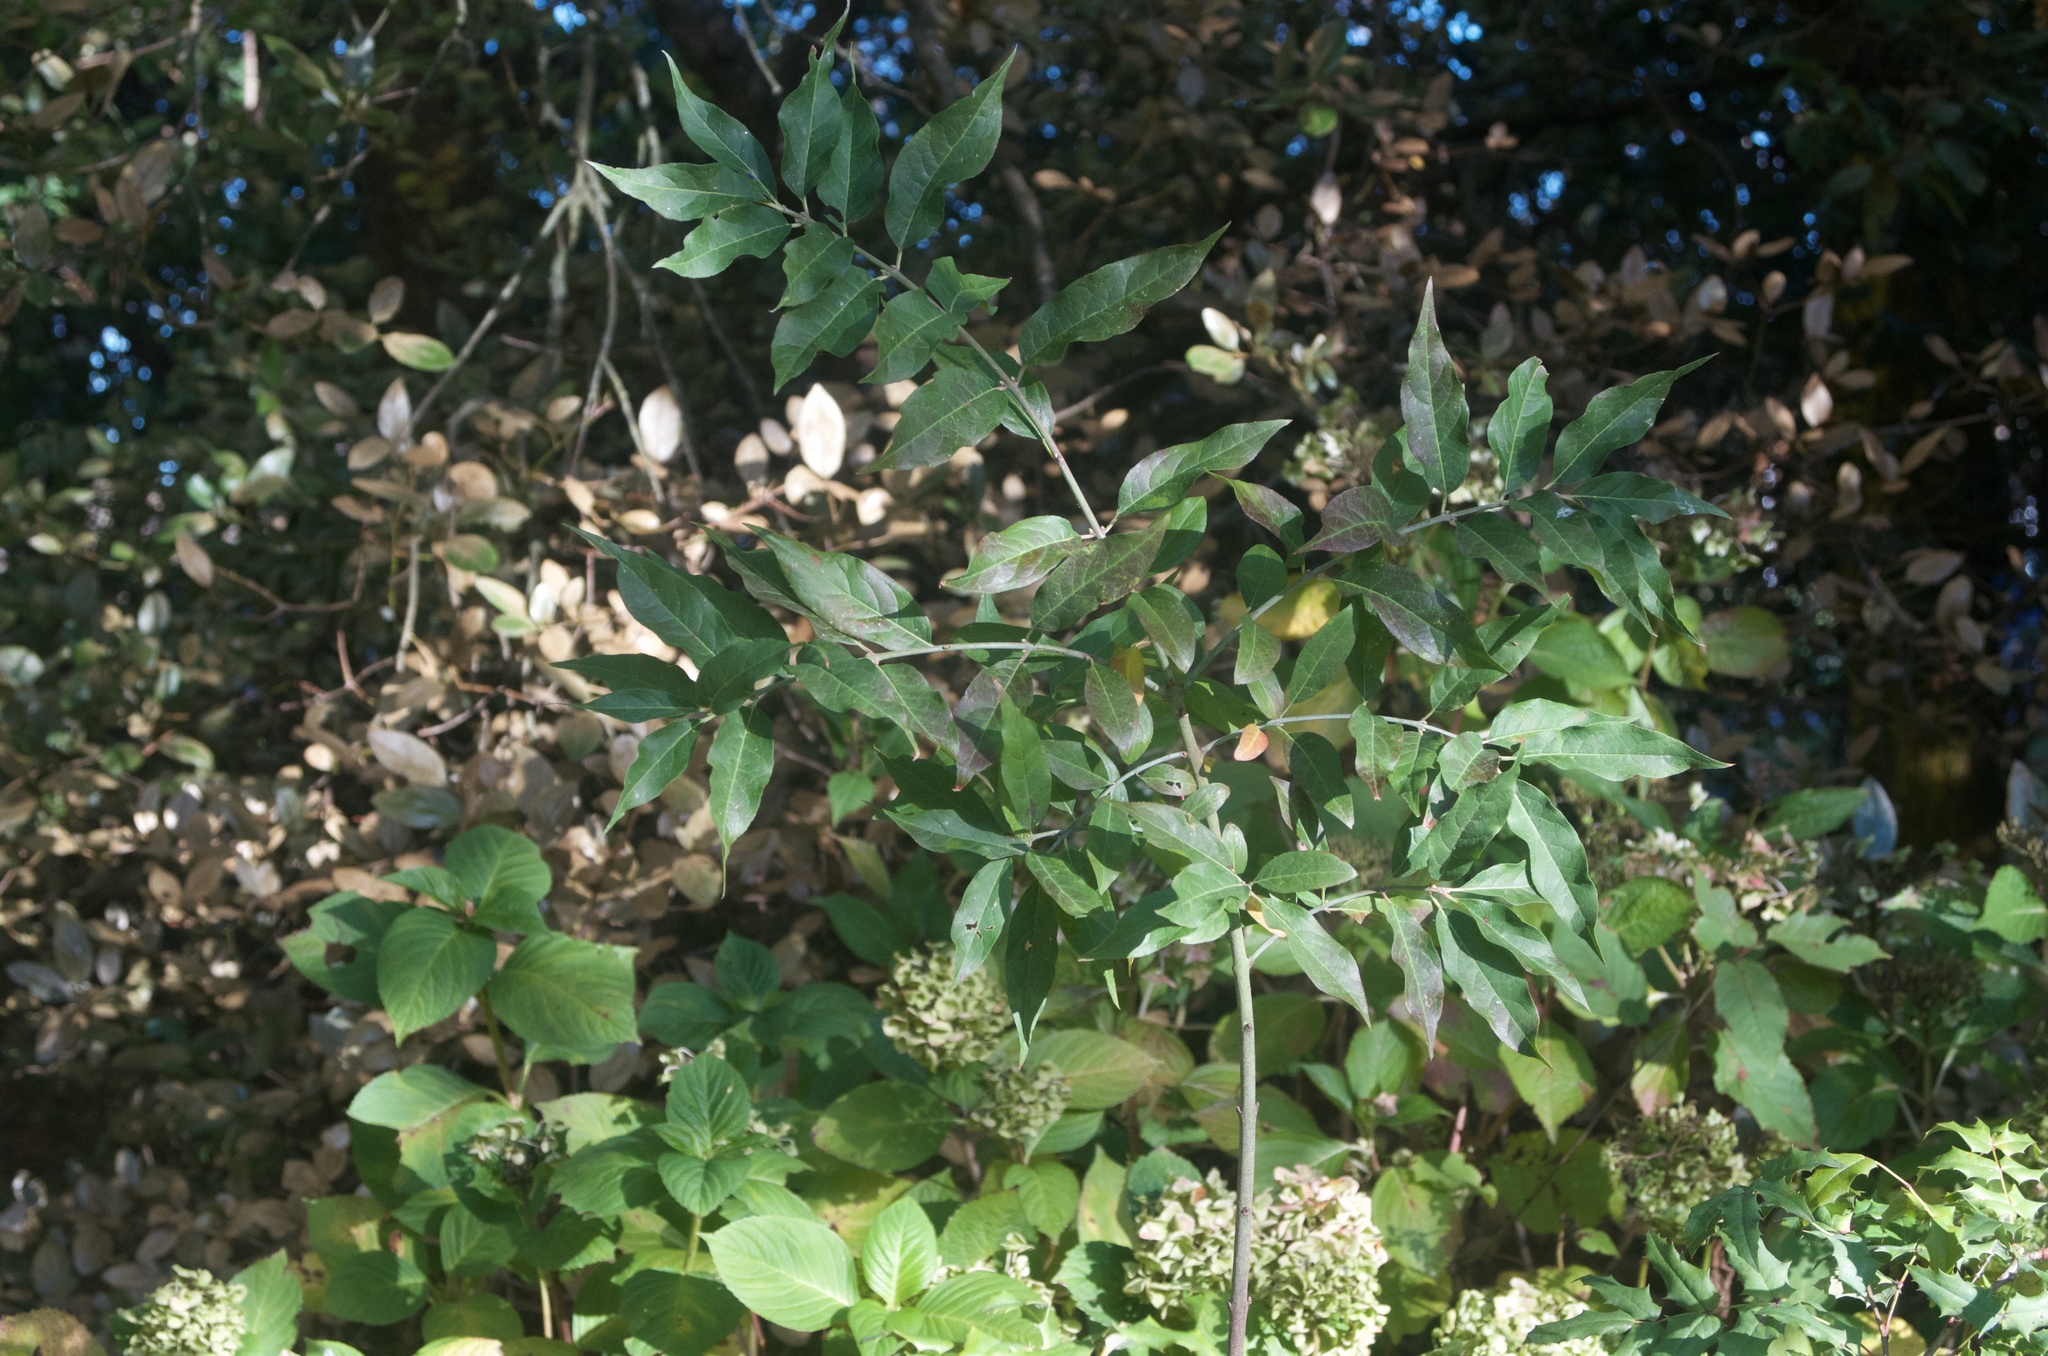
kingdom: Plantae
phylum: Tracheophyta
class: Magnoliopsida
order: Celastrales
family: Celastraceae
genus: Euonymus
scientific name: Euonymus europaeus
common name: Spindle
